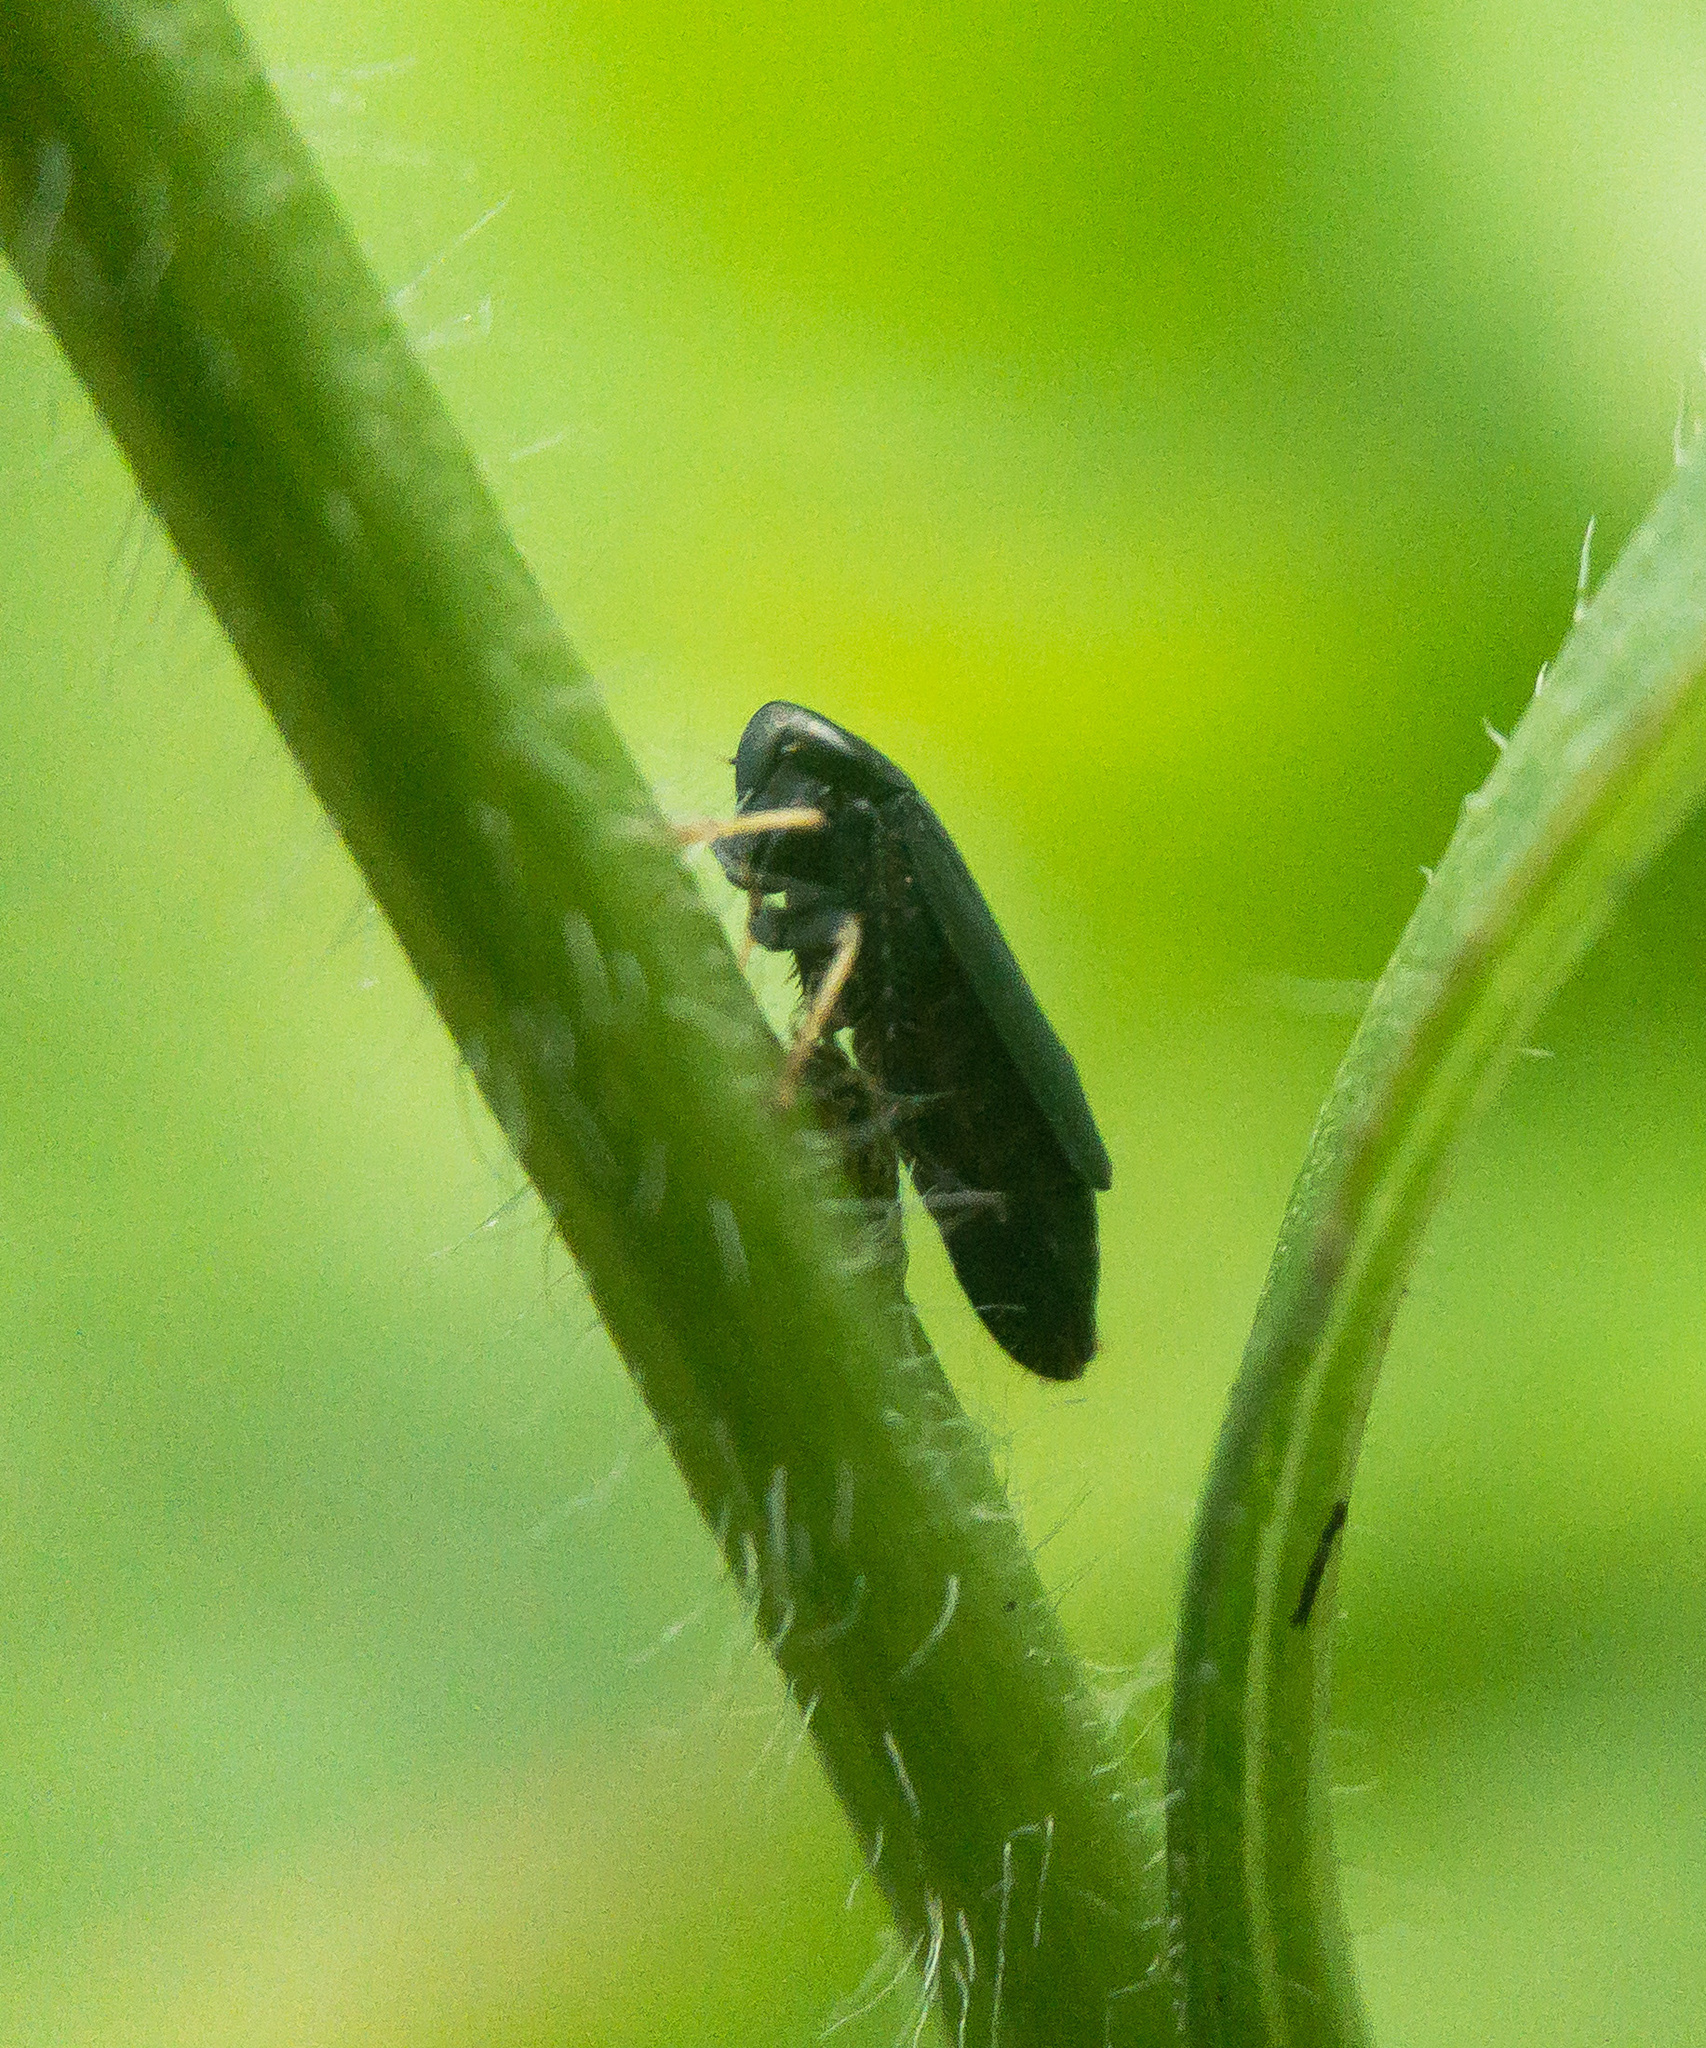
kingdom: Animalia
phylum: Arthropoda
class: Insecta
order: Hemiptera
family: Cicadellidae
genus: Scleroracus
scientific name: Scleroracus anthracinus
